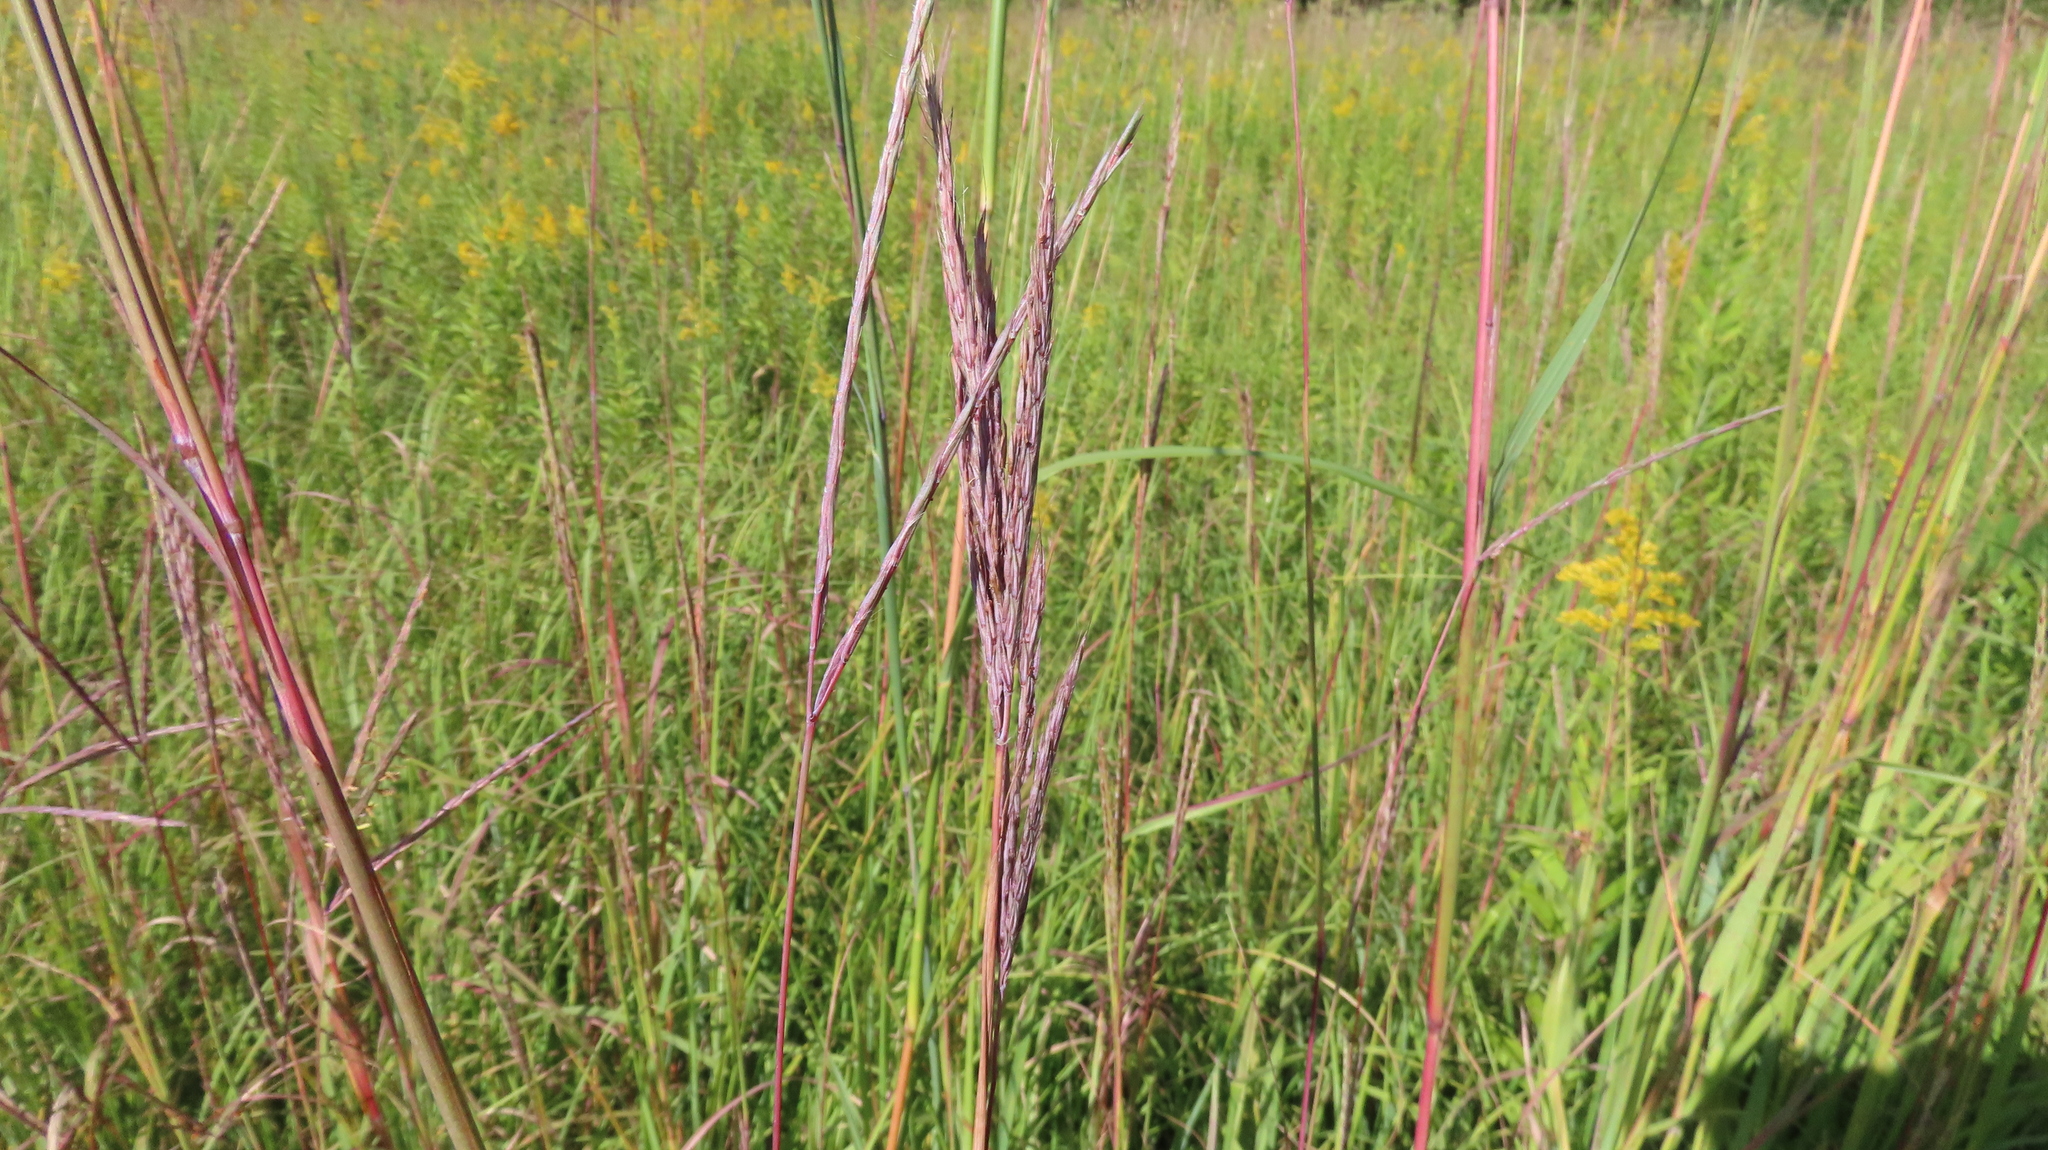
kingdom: Plantae
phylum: Tracheophyta
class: Liliopsida
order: Poales
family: Poaceae
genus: Andropogon
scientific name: Andropogon gerardi
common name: Big bluestem
